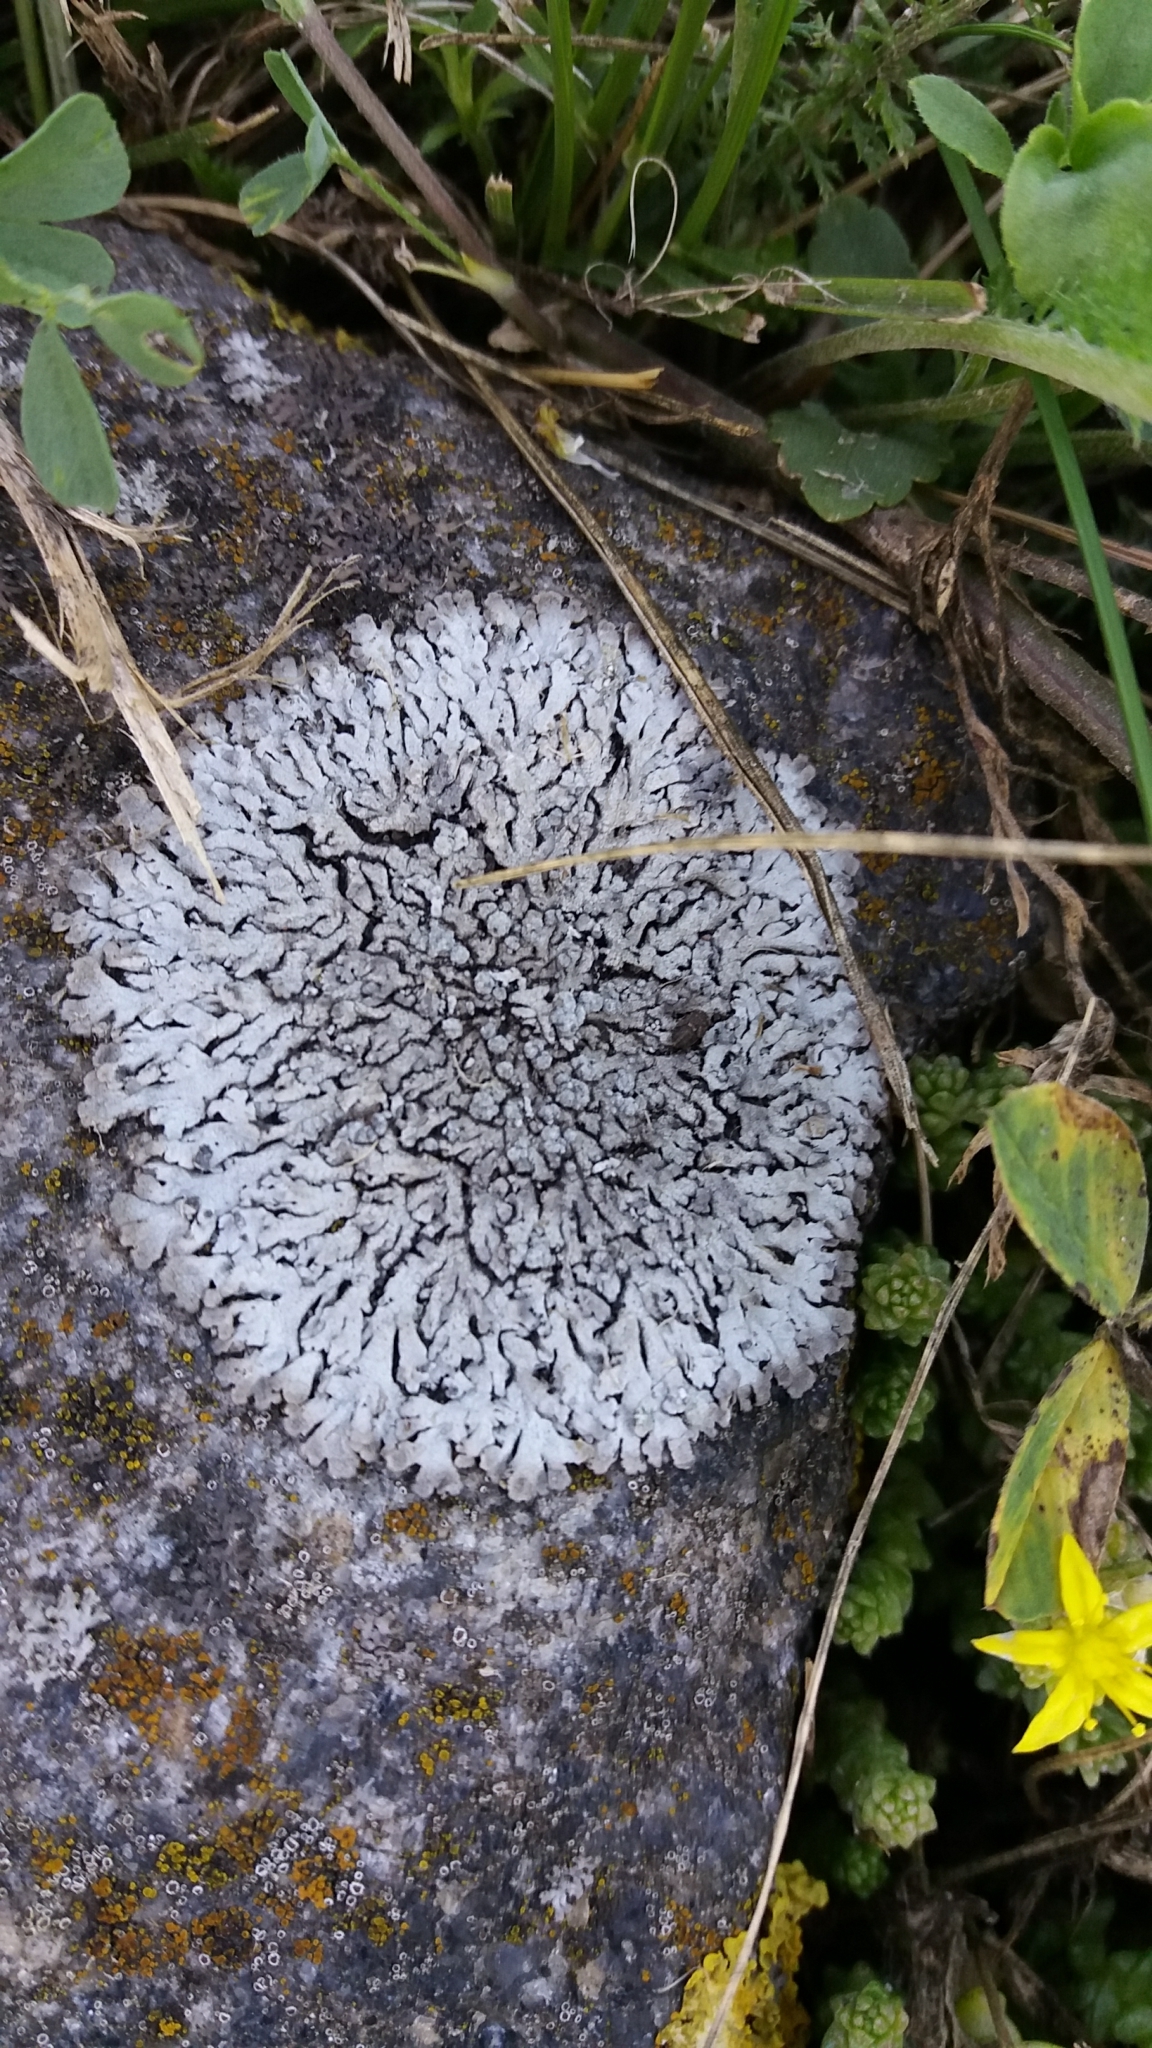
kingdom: Fungi
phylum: Ascomycota
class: Lecanoromycetes
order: Caliciales
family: Physciaceae
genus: Physcia
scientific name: Physcia caesia
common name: Blue-gray rosette lichen
